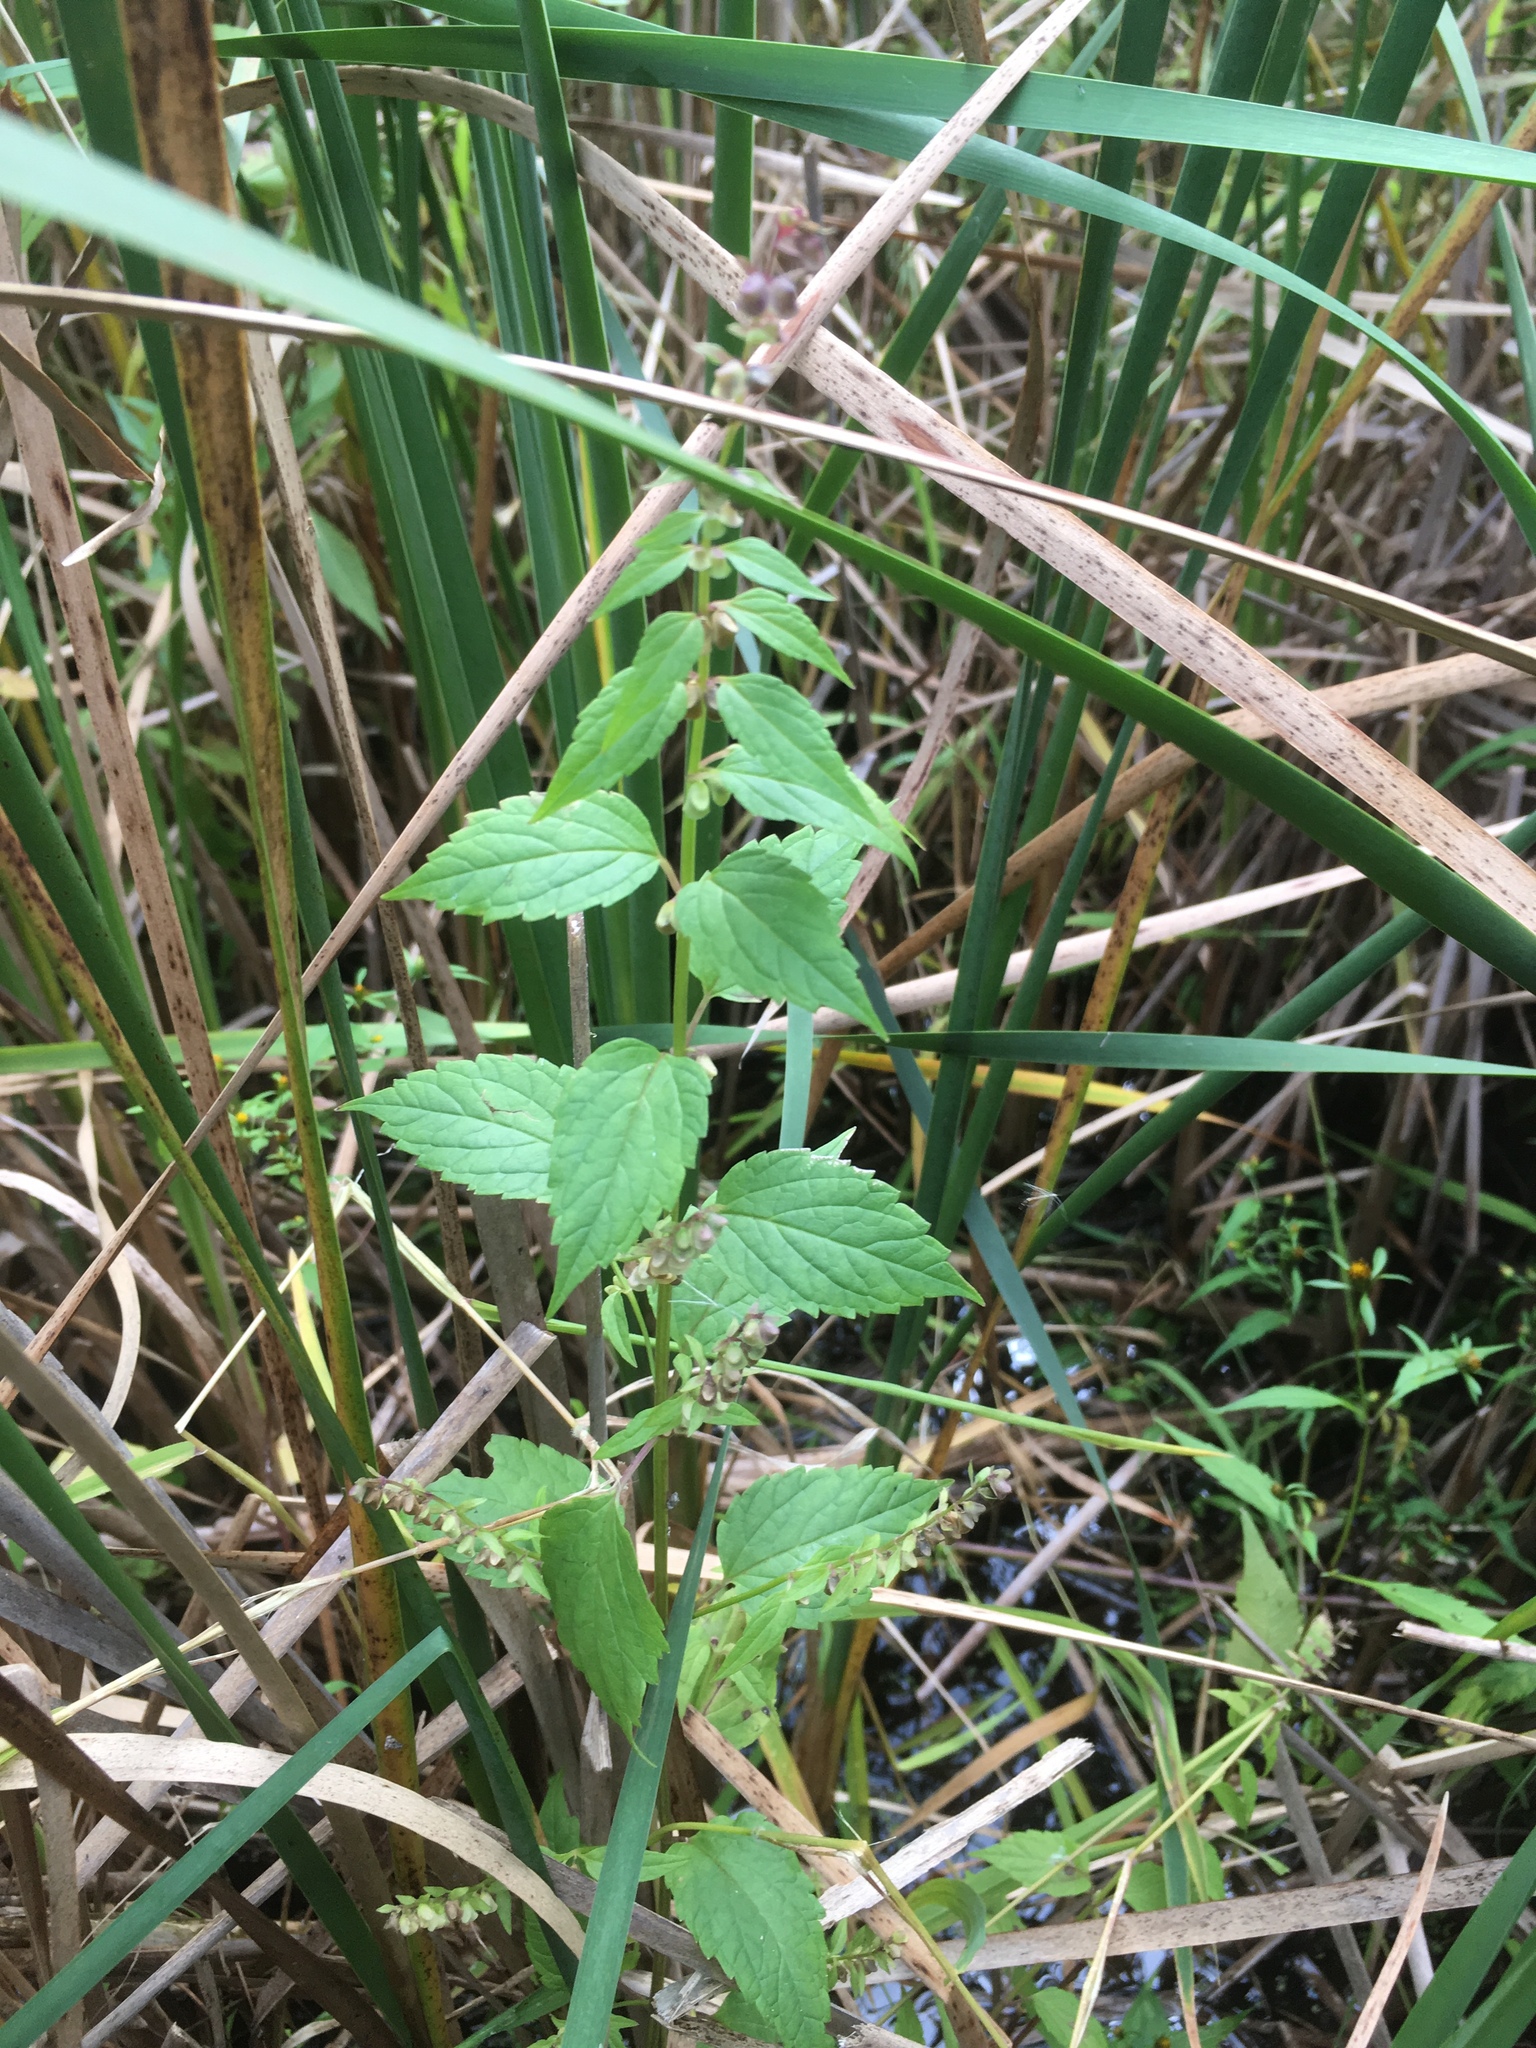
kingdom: Plantae
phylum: Tracheophyta
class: Magnoliopsida
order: Lamiales
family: Lamiaceae
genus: Scutellaria
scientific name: Scutellaria lateriflora
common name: Blue skullcap
